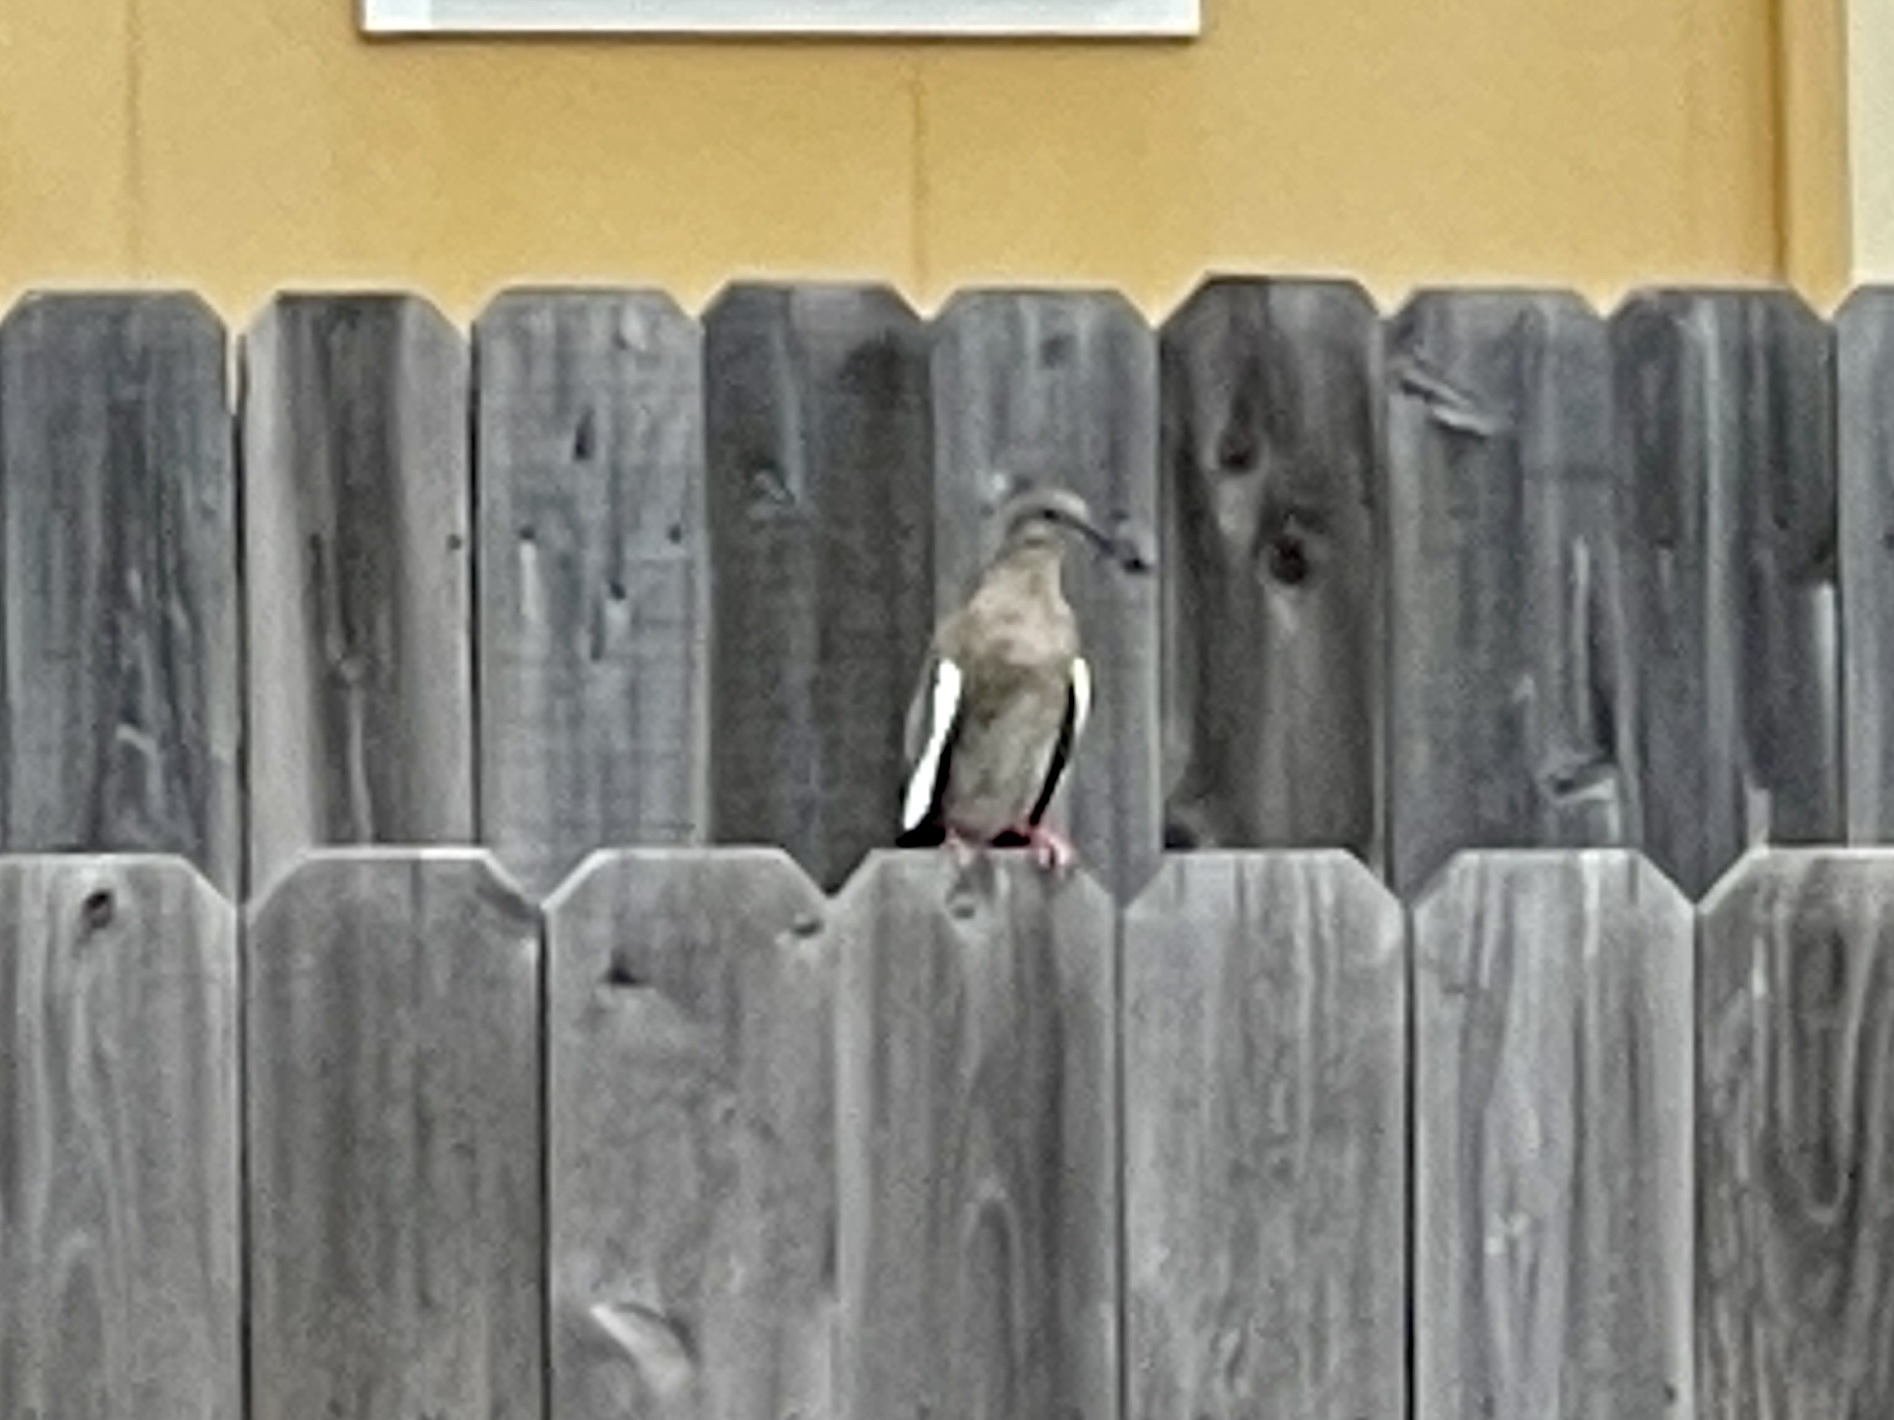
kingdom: Animalia
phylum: Chordata
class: Aves
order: Columbiformes
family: Columbidae
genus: Zenaida
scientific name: Zenaida asiatica
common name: White-winged dove
